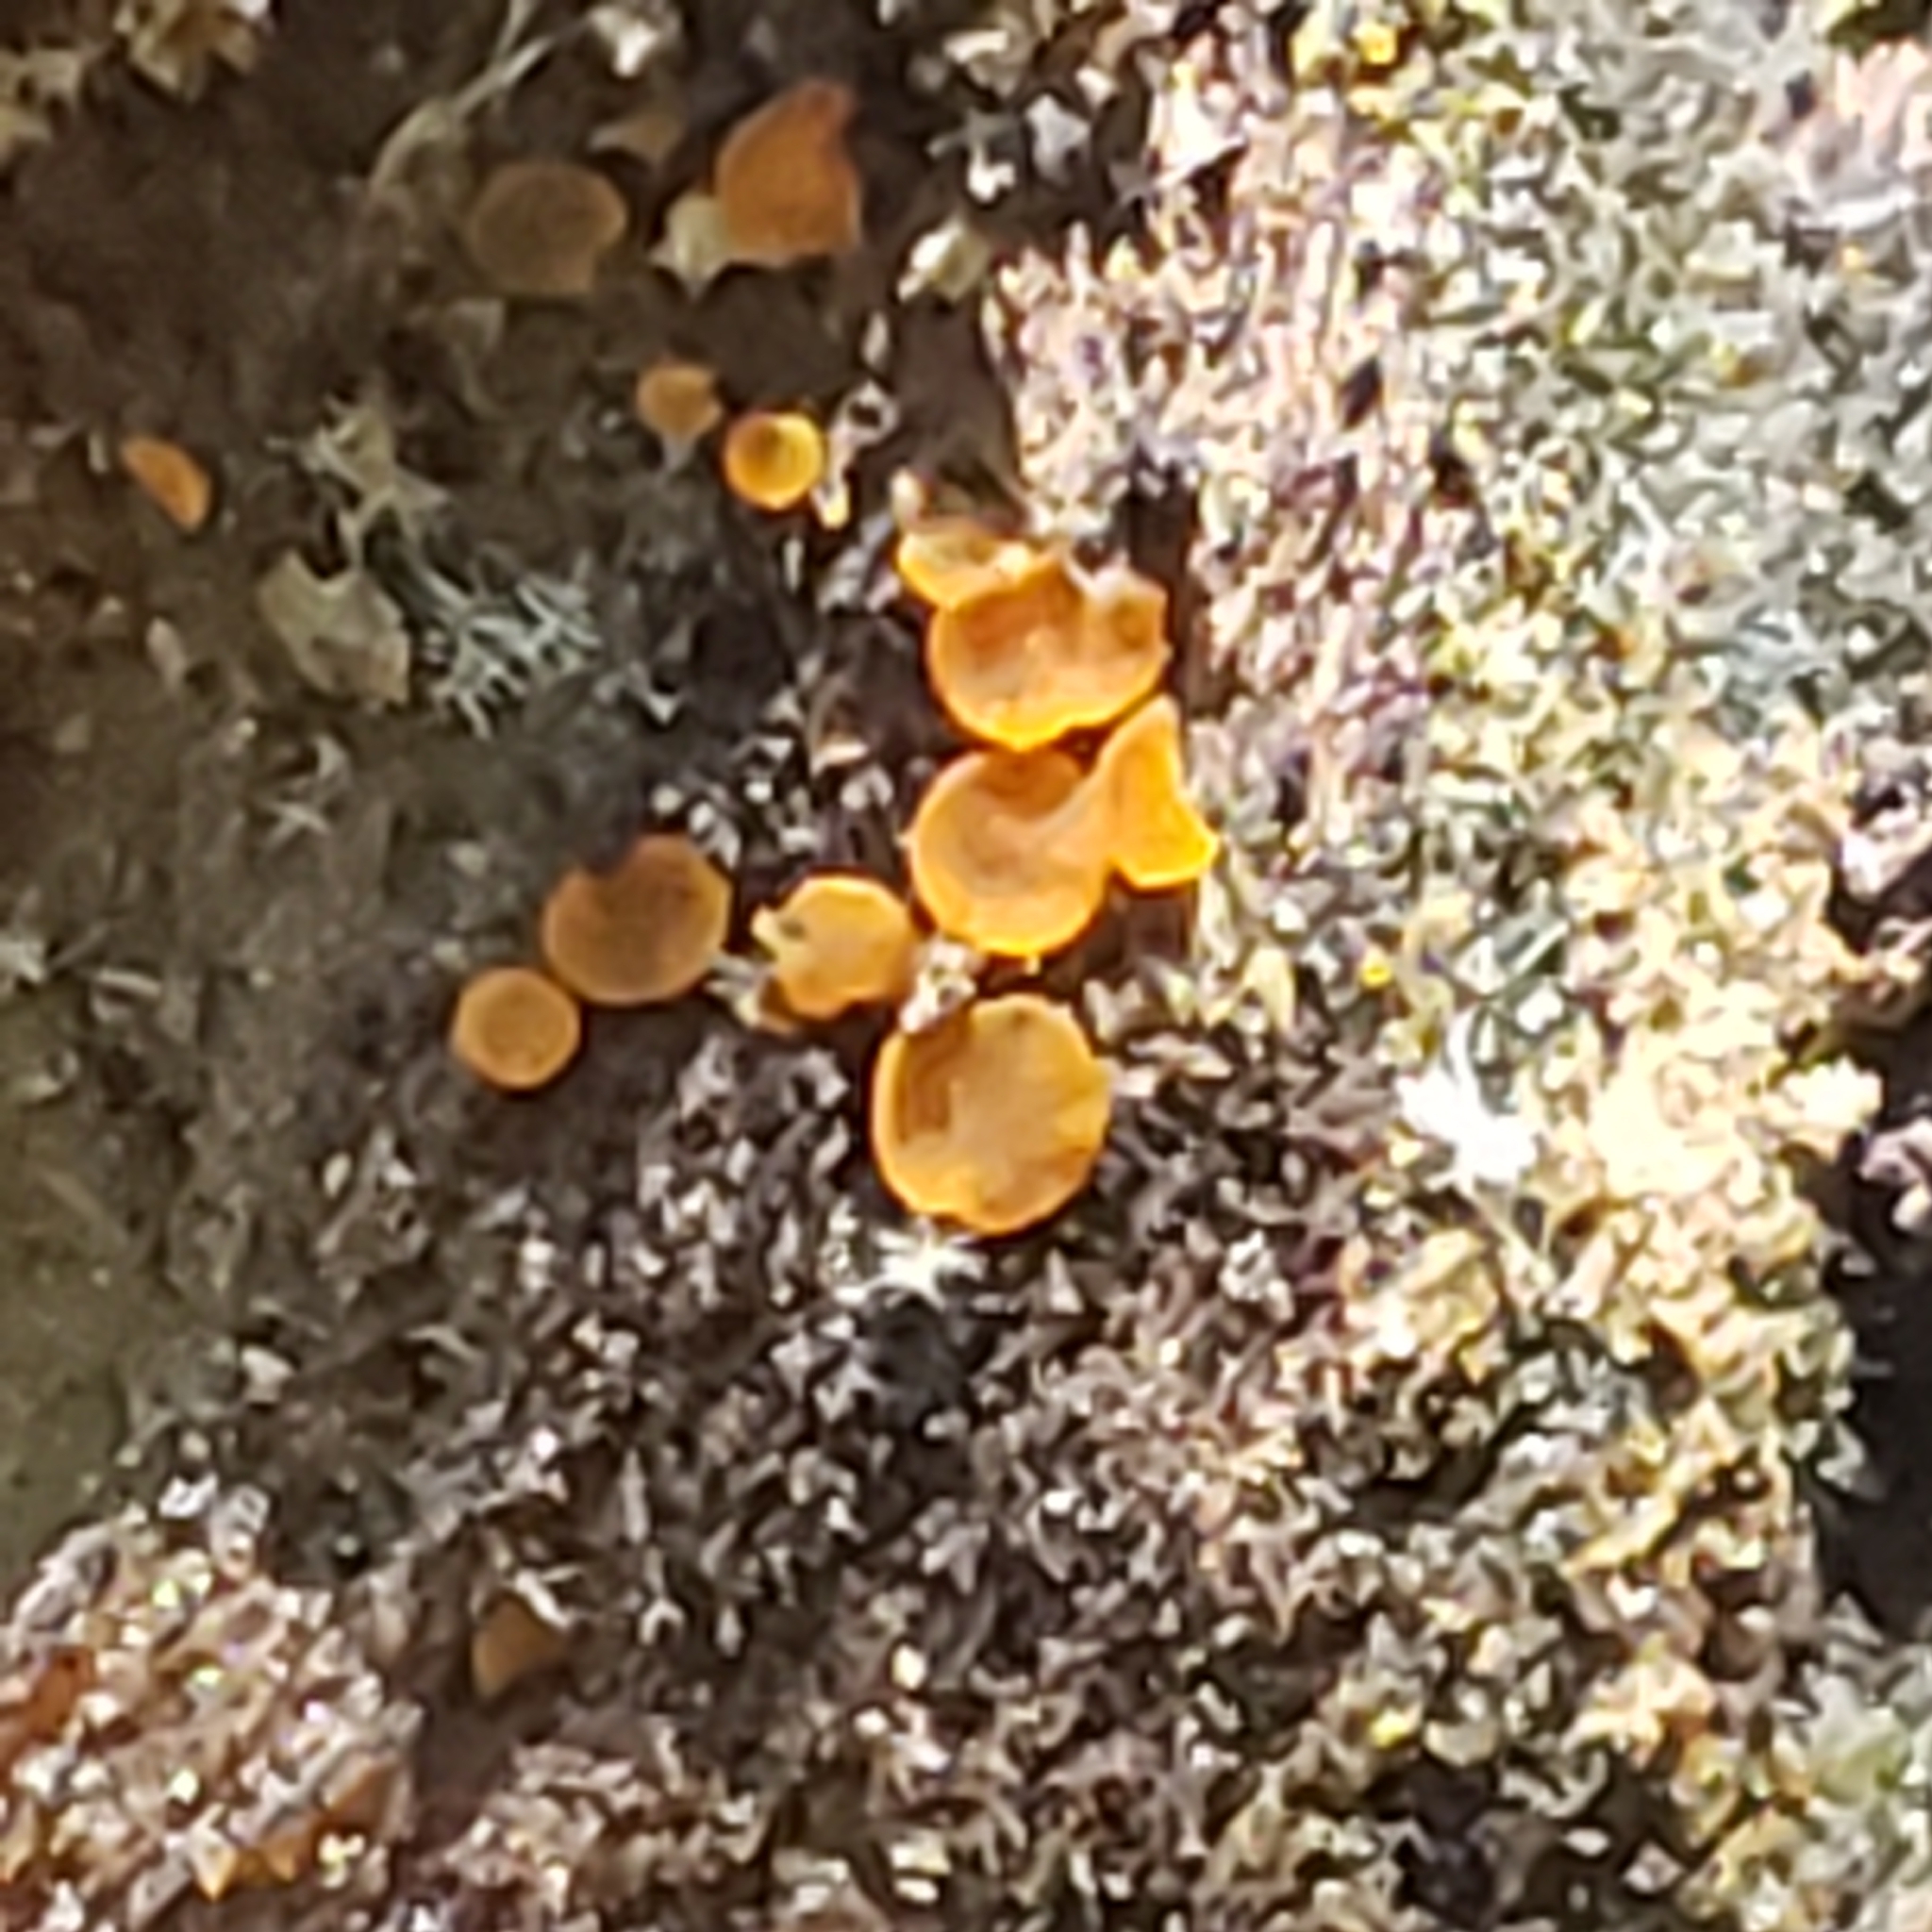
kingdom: Fungi
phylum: Ascomycota
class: Orbiliomycetes
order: Orbiliales
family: Orbiliaceae
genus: Orbilia
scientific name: Orbilia
